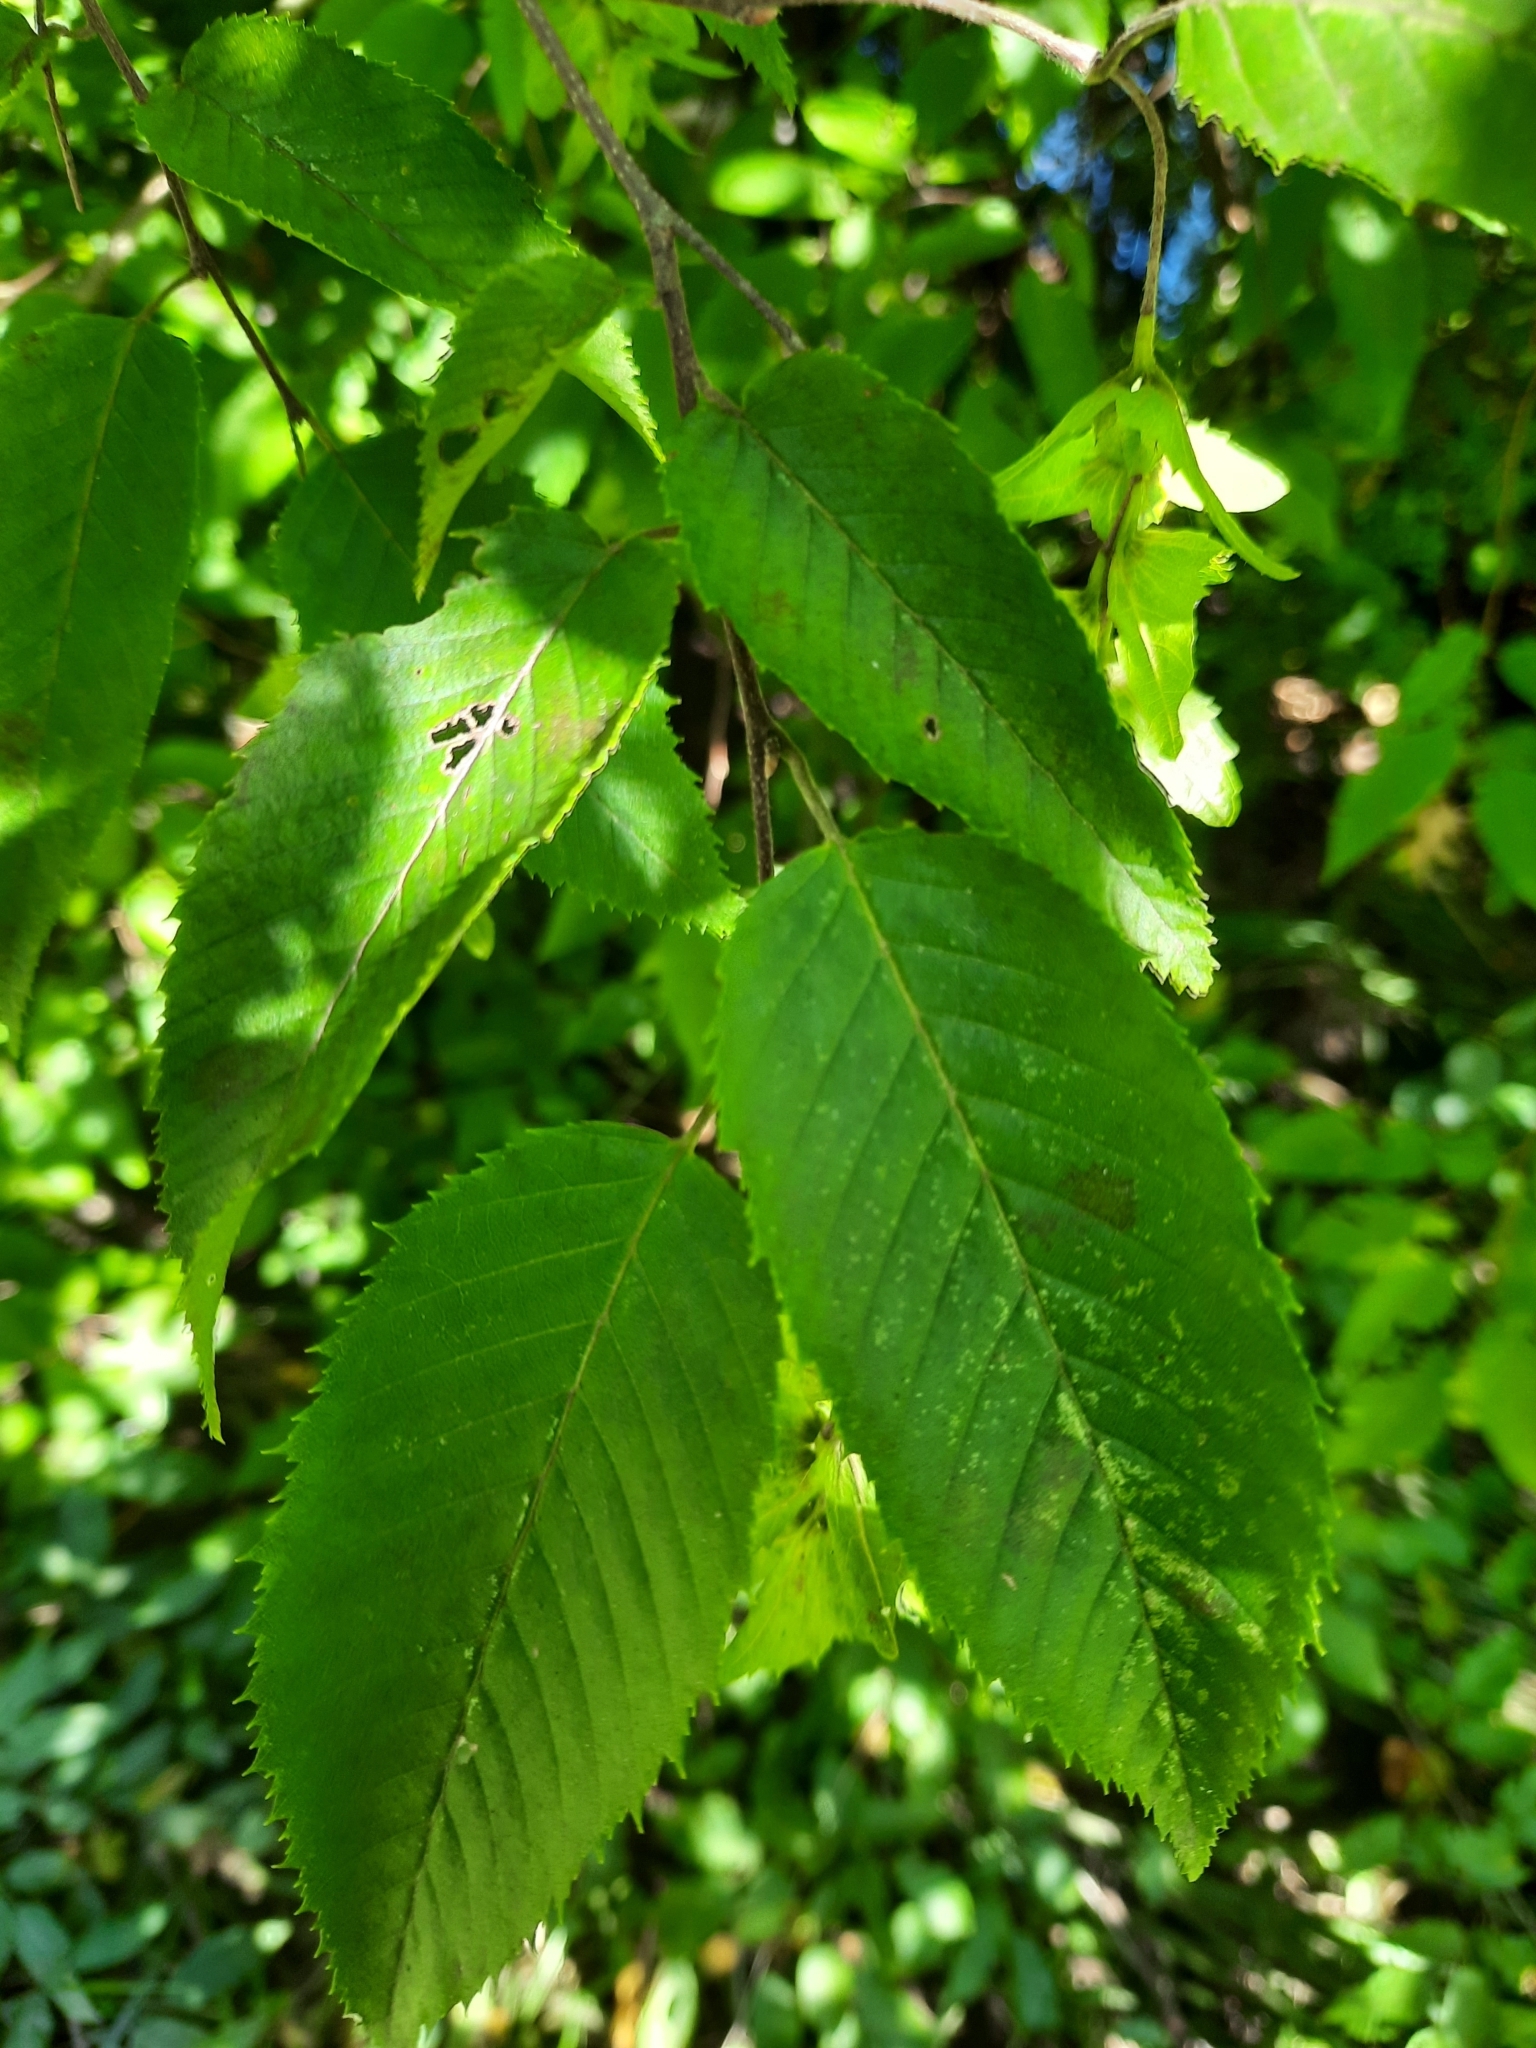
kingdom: Plantae
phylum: Tracheophyta
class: Magnoliopsida
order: Fagales
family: Betulaceae
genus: Carpinus
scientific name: Carpinus caroliniana
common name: American hornbeam
